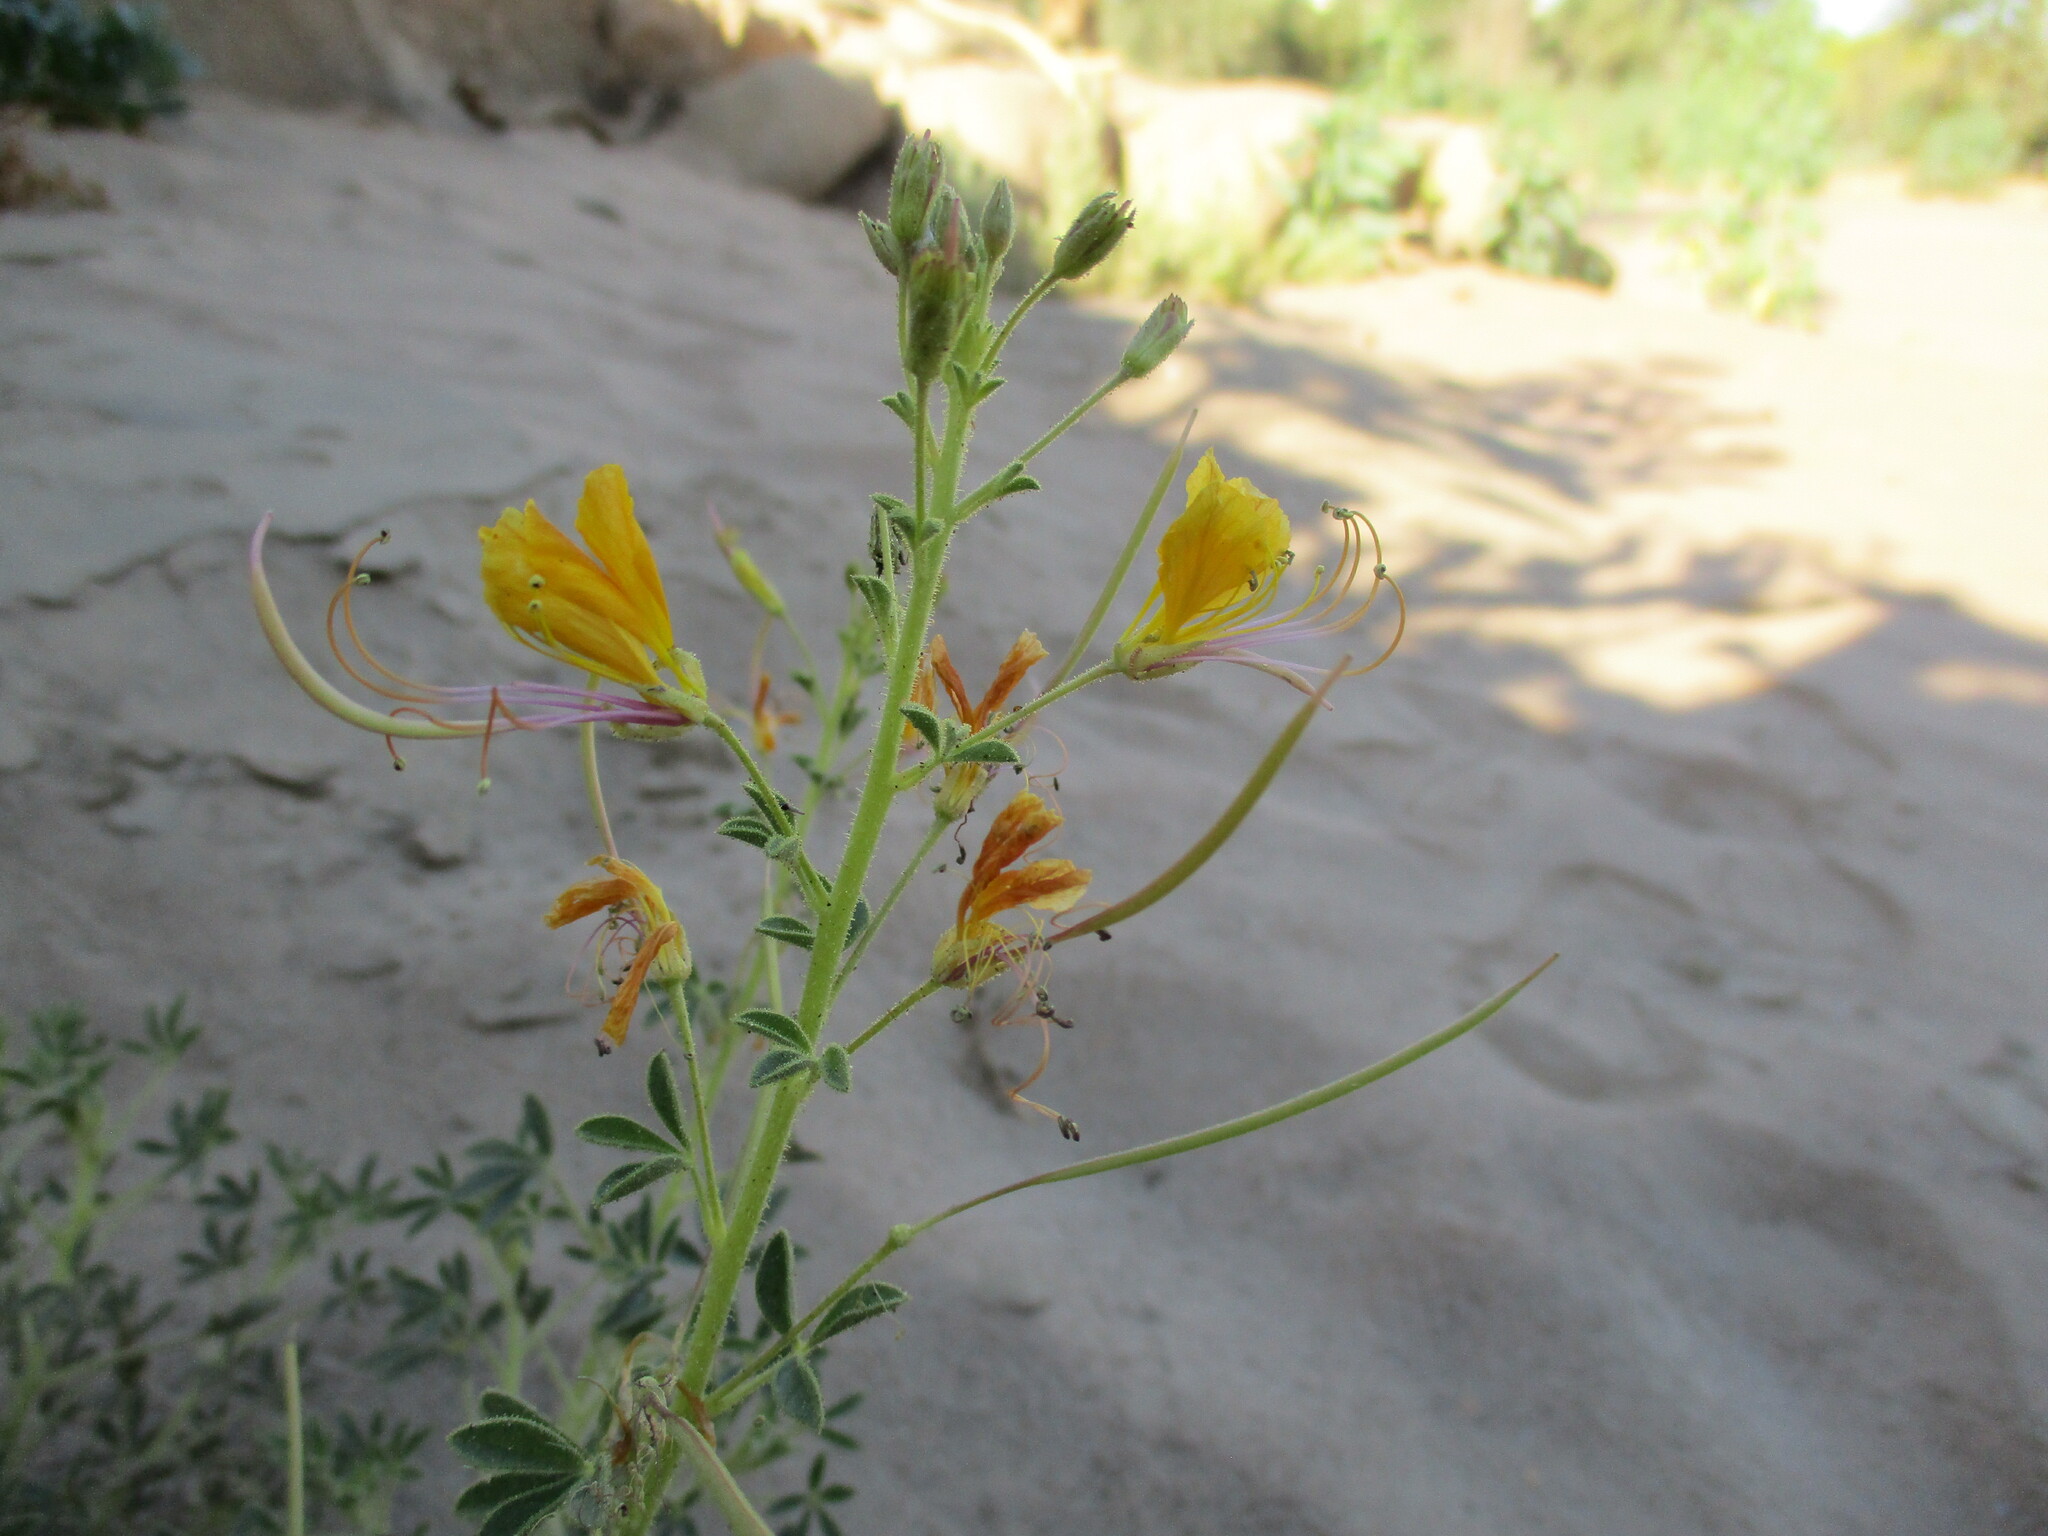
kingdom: Plantae
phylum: Tracheophyta
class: Magnoliopsida
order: Brassicales
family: Cleomaceae
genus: Cleome
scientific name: Cleome foliosa
